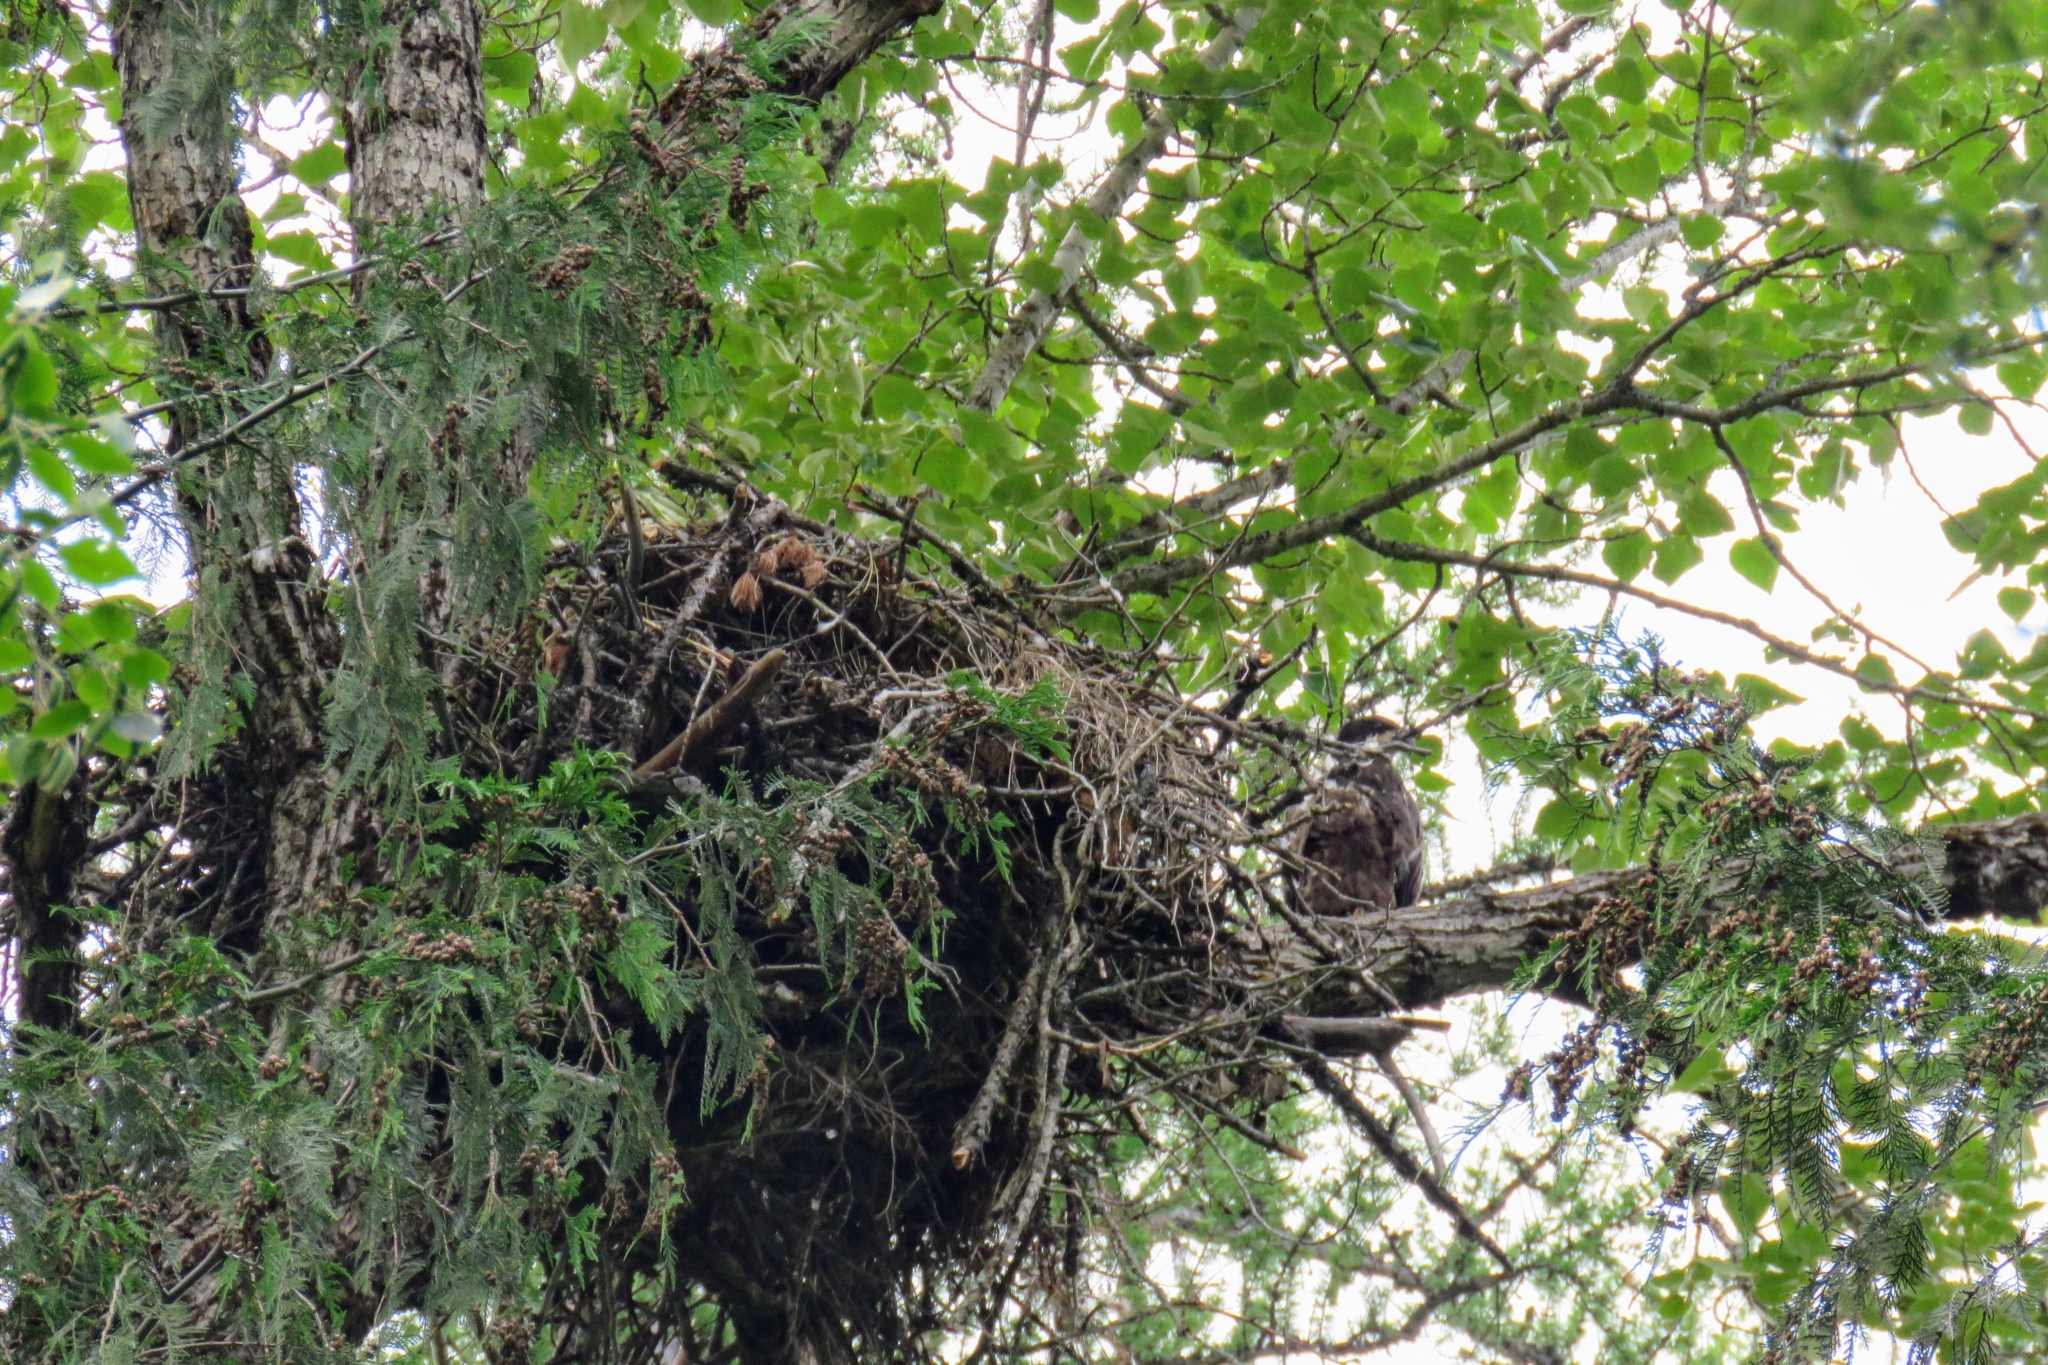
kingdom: Animalia
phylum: Chordata
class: Aves
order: Accipitriformes
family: Accipitridae
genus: Haliaeetus
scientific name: Haliaeetus leucocephalus
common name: Bald eagle
